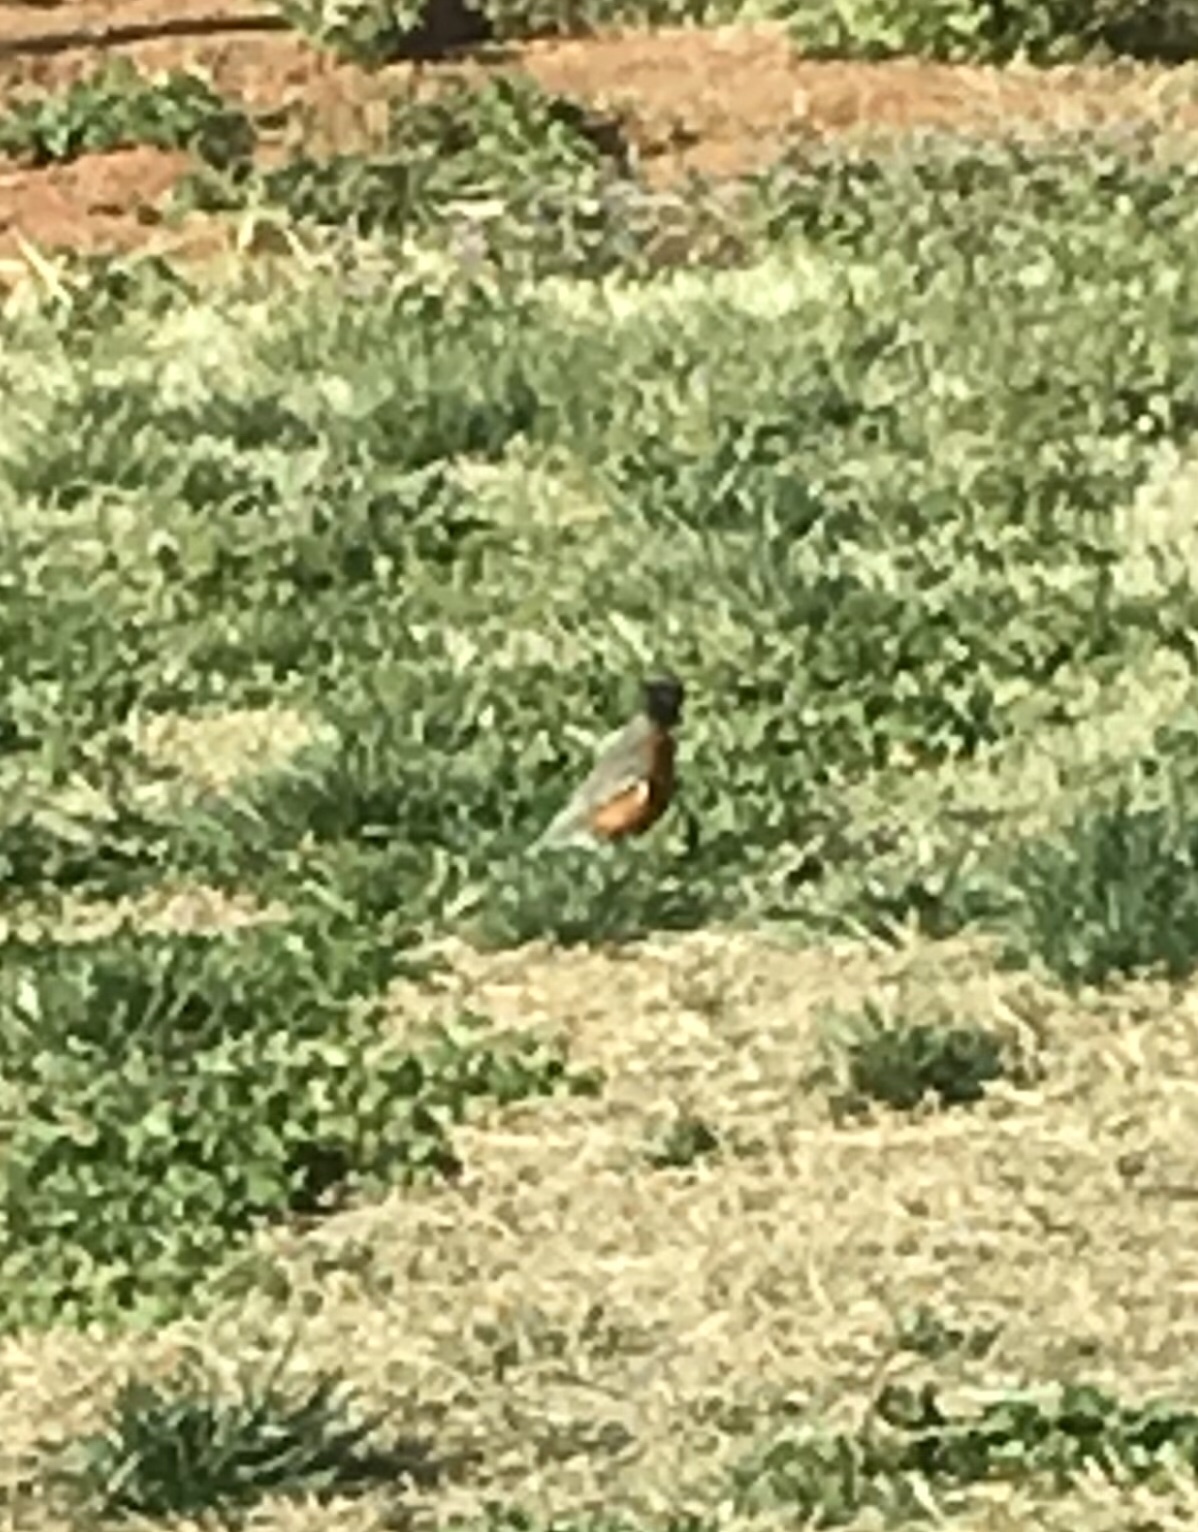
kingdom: Animalia
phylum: Chordata
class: Aves
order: Passeriformes
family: Turdidae
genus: Turdus
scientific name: Turdus migratorius
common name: American robin
